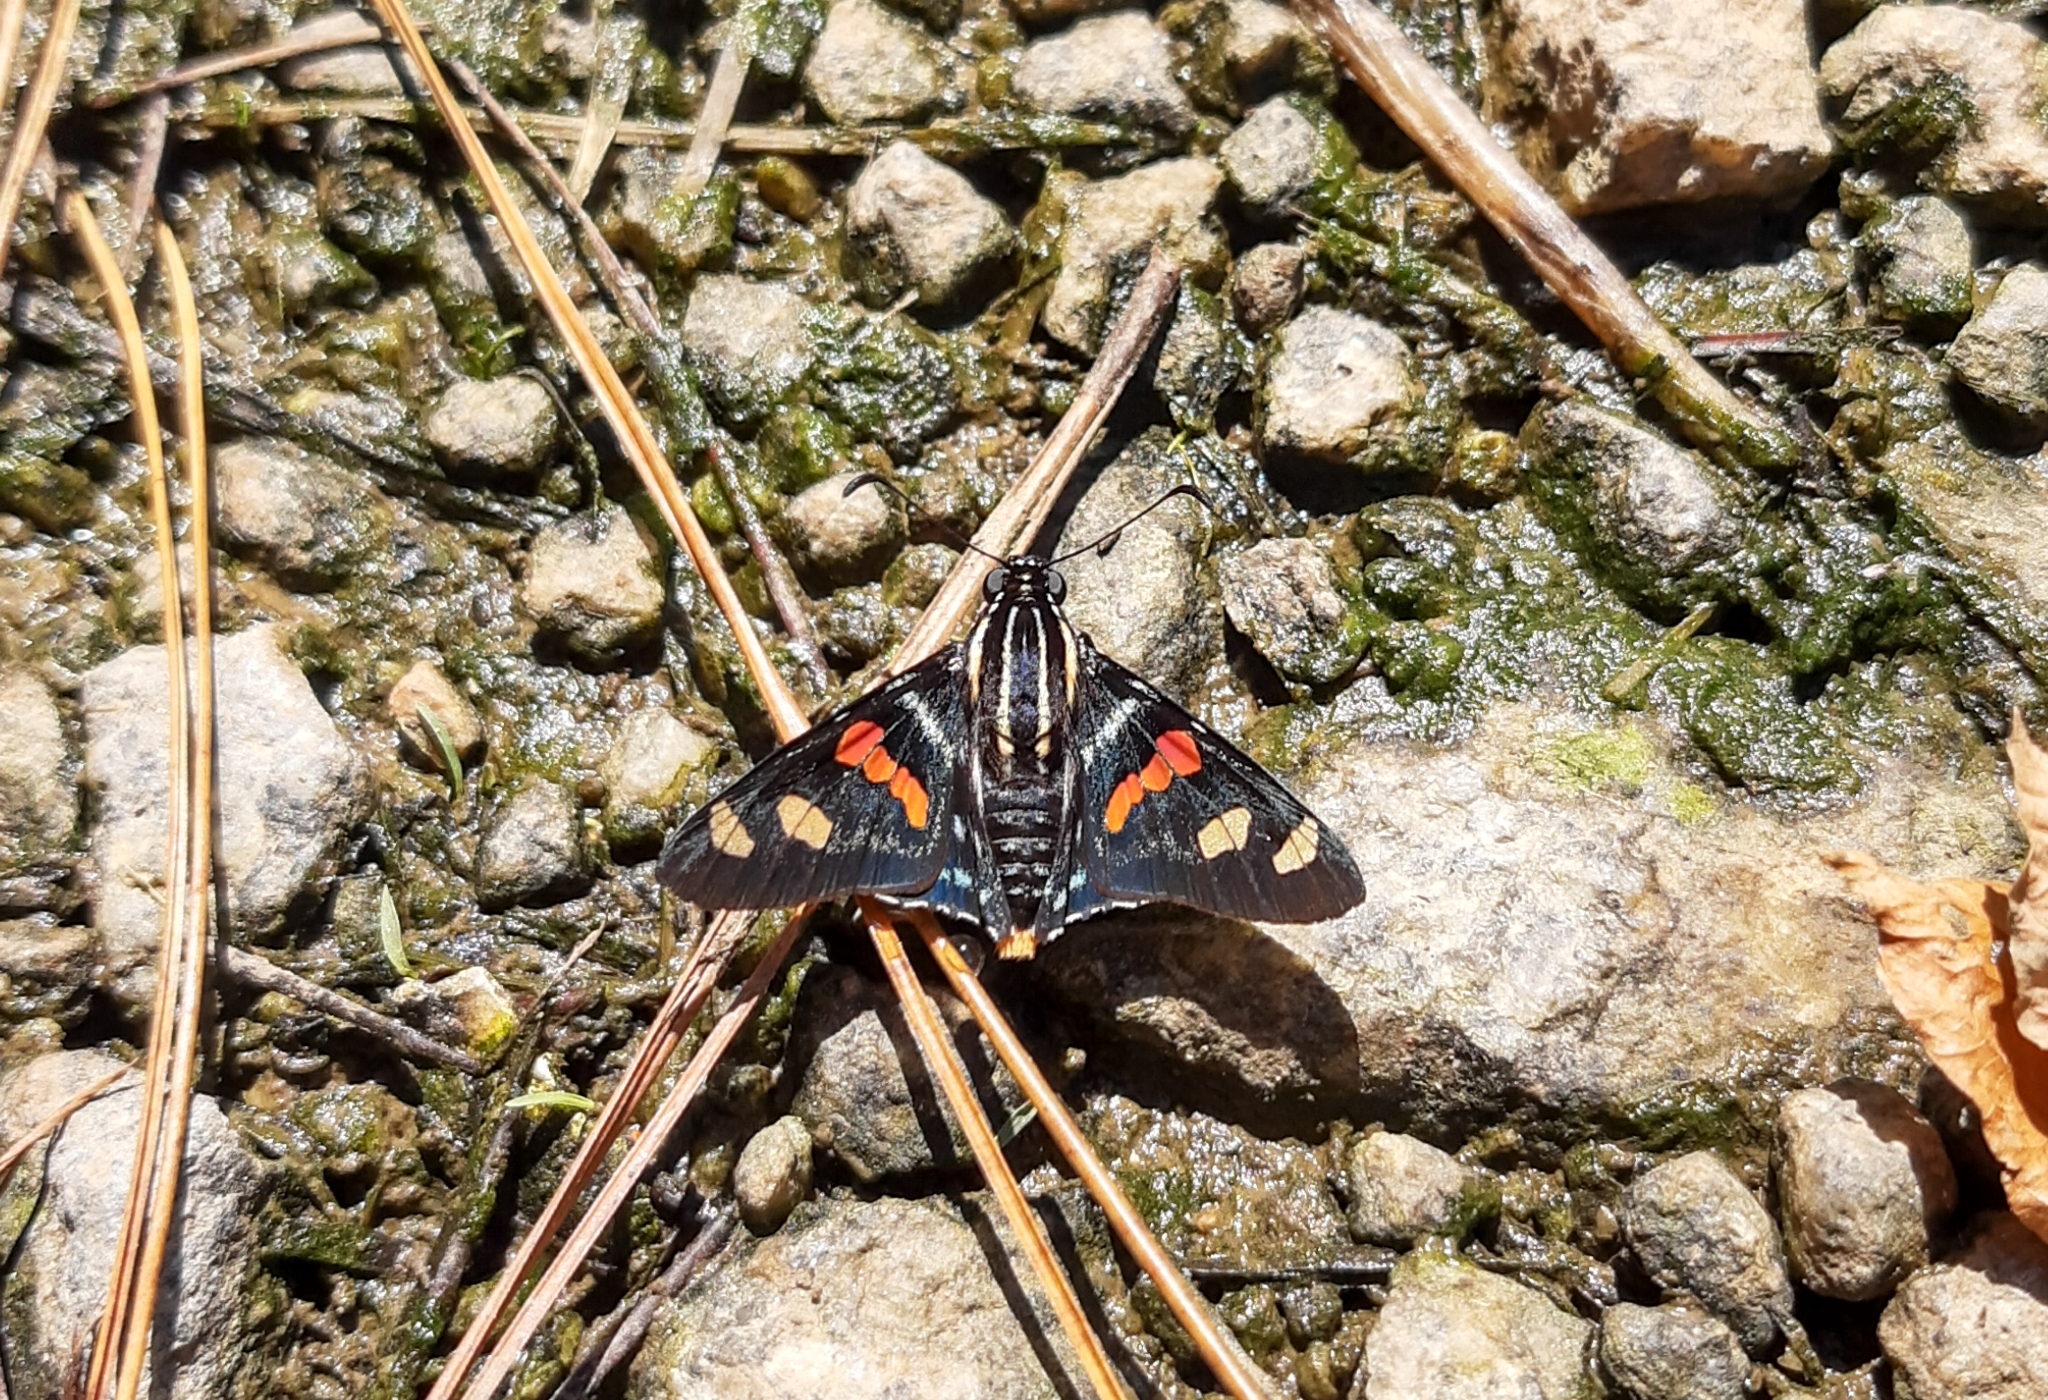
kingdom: Animalia
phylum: Arthropoda
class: Insecta
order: Lepidoptera
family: Hesperiidae
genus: Mimoniades
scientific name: Mimoniades versicolor
